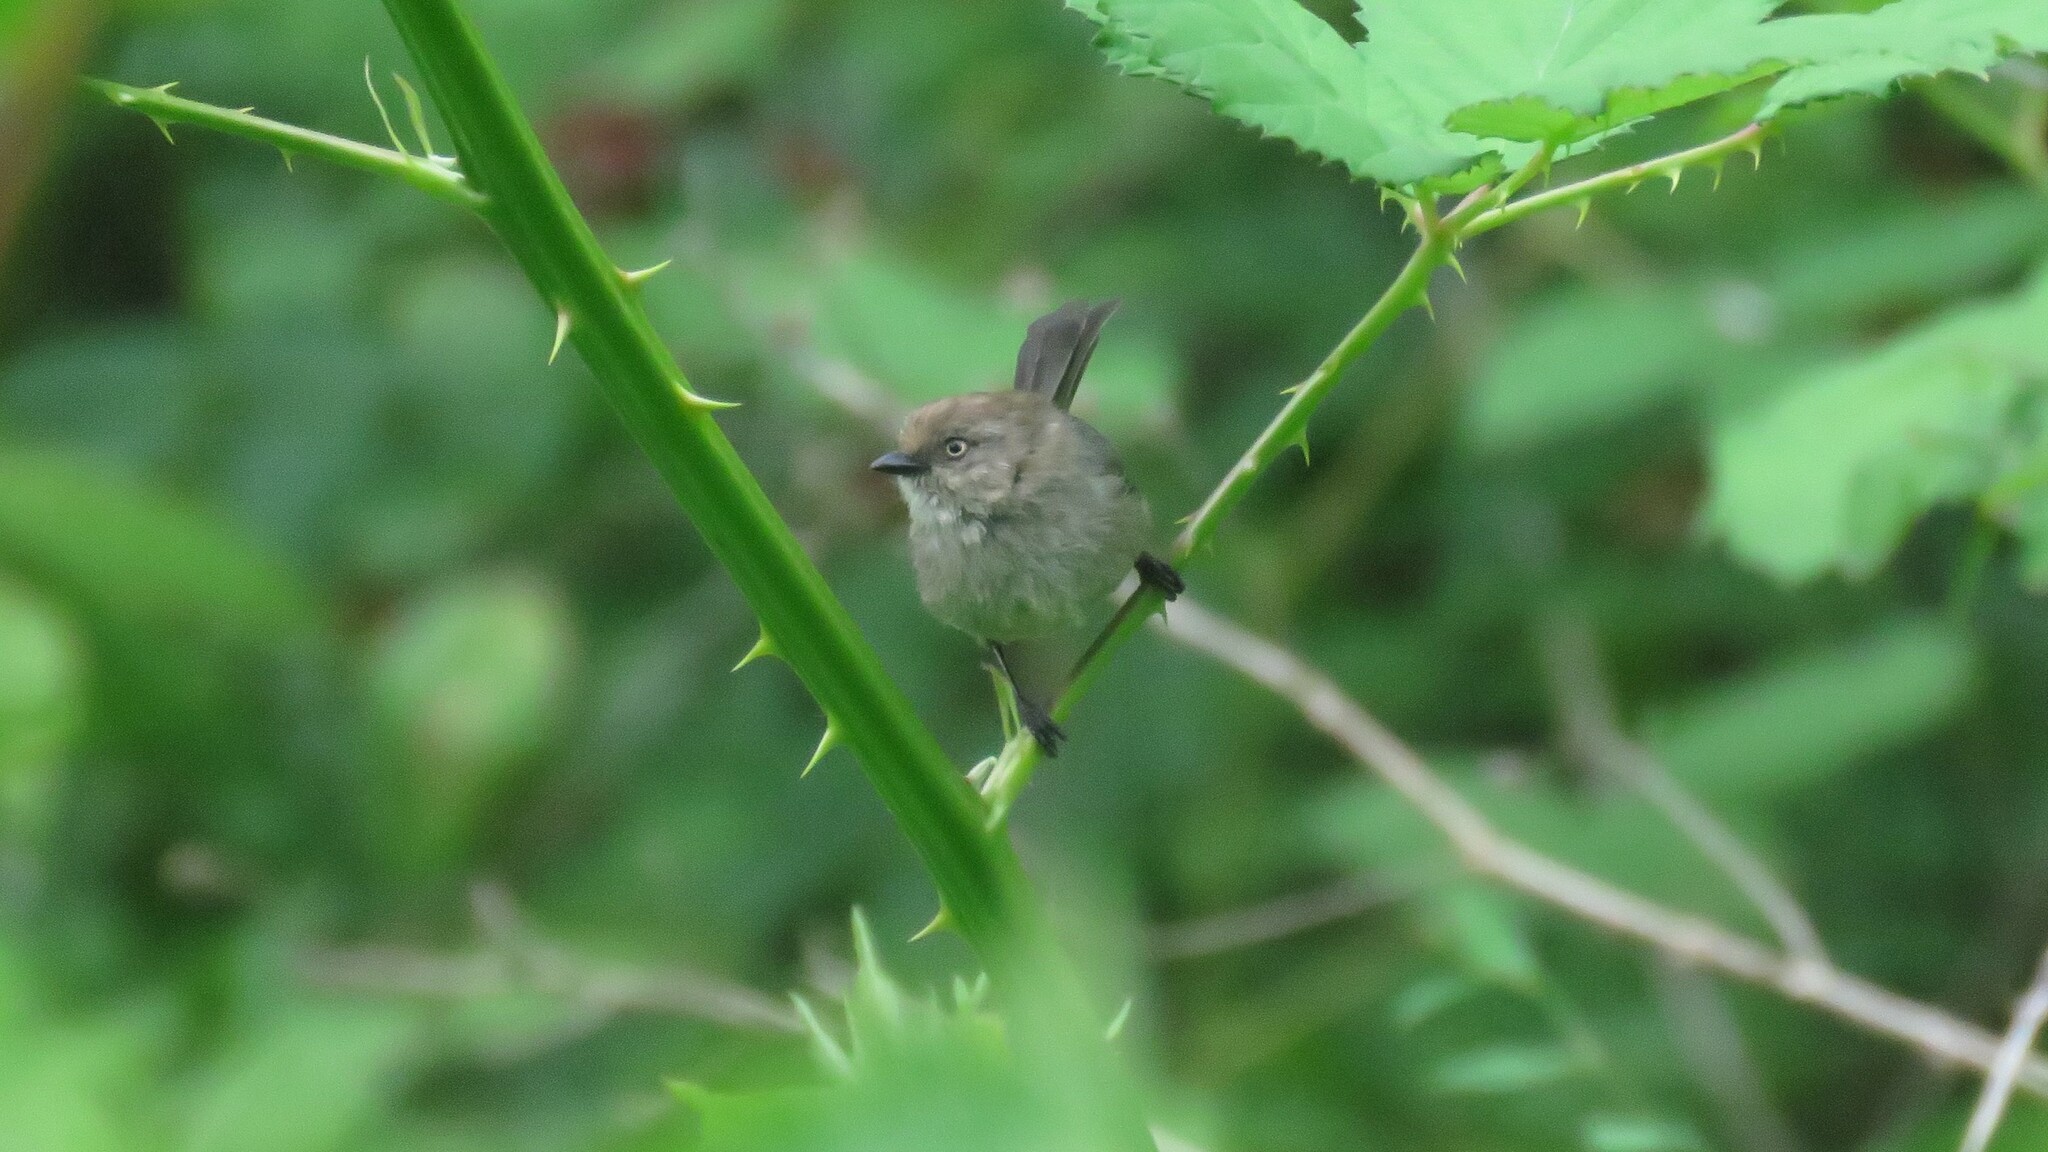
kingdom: Animalia
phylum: Chordata
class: Aves
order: Passeriformes
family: Aegithalidae
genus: Psaltriparus
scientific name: Psaltriparus minimus
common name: American bushtit
